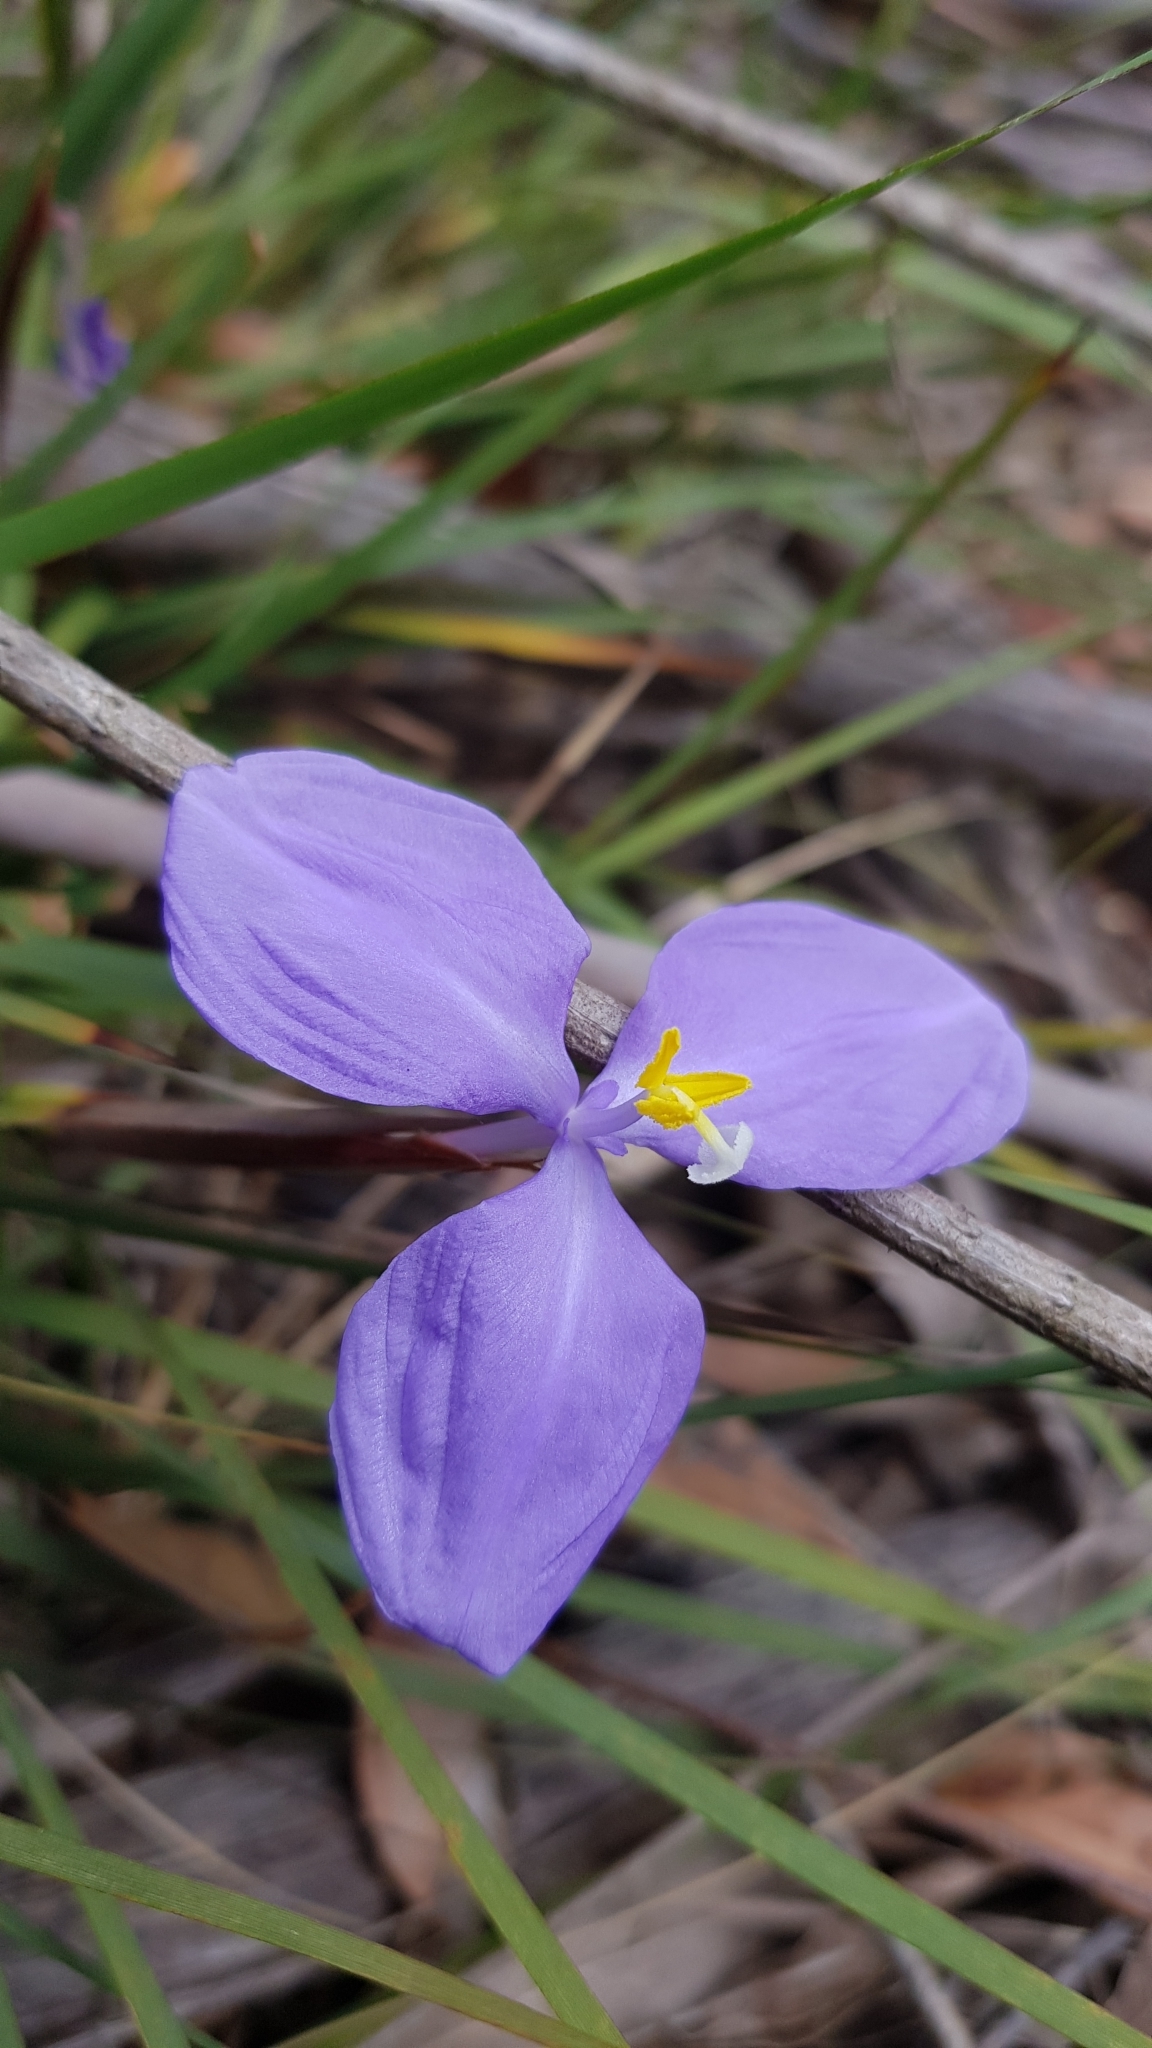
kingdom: Plantae
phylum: Tracheophyta
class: Liliopsida
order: Asparagales
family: Iridaceae
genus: Patersonia
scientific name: Patersonia glabrata
